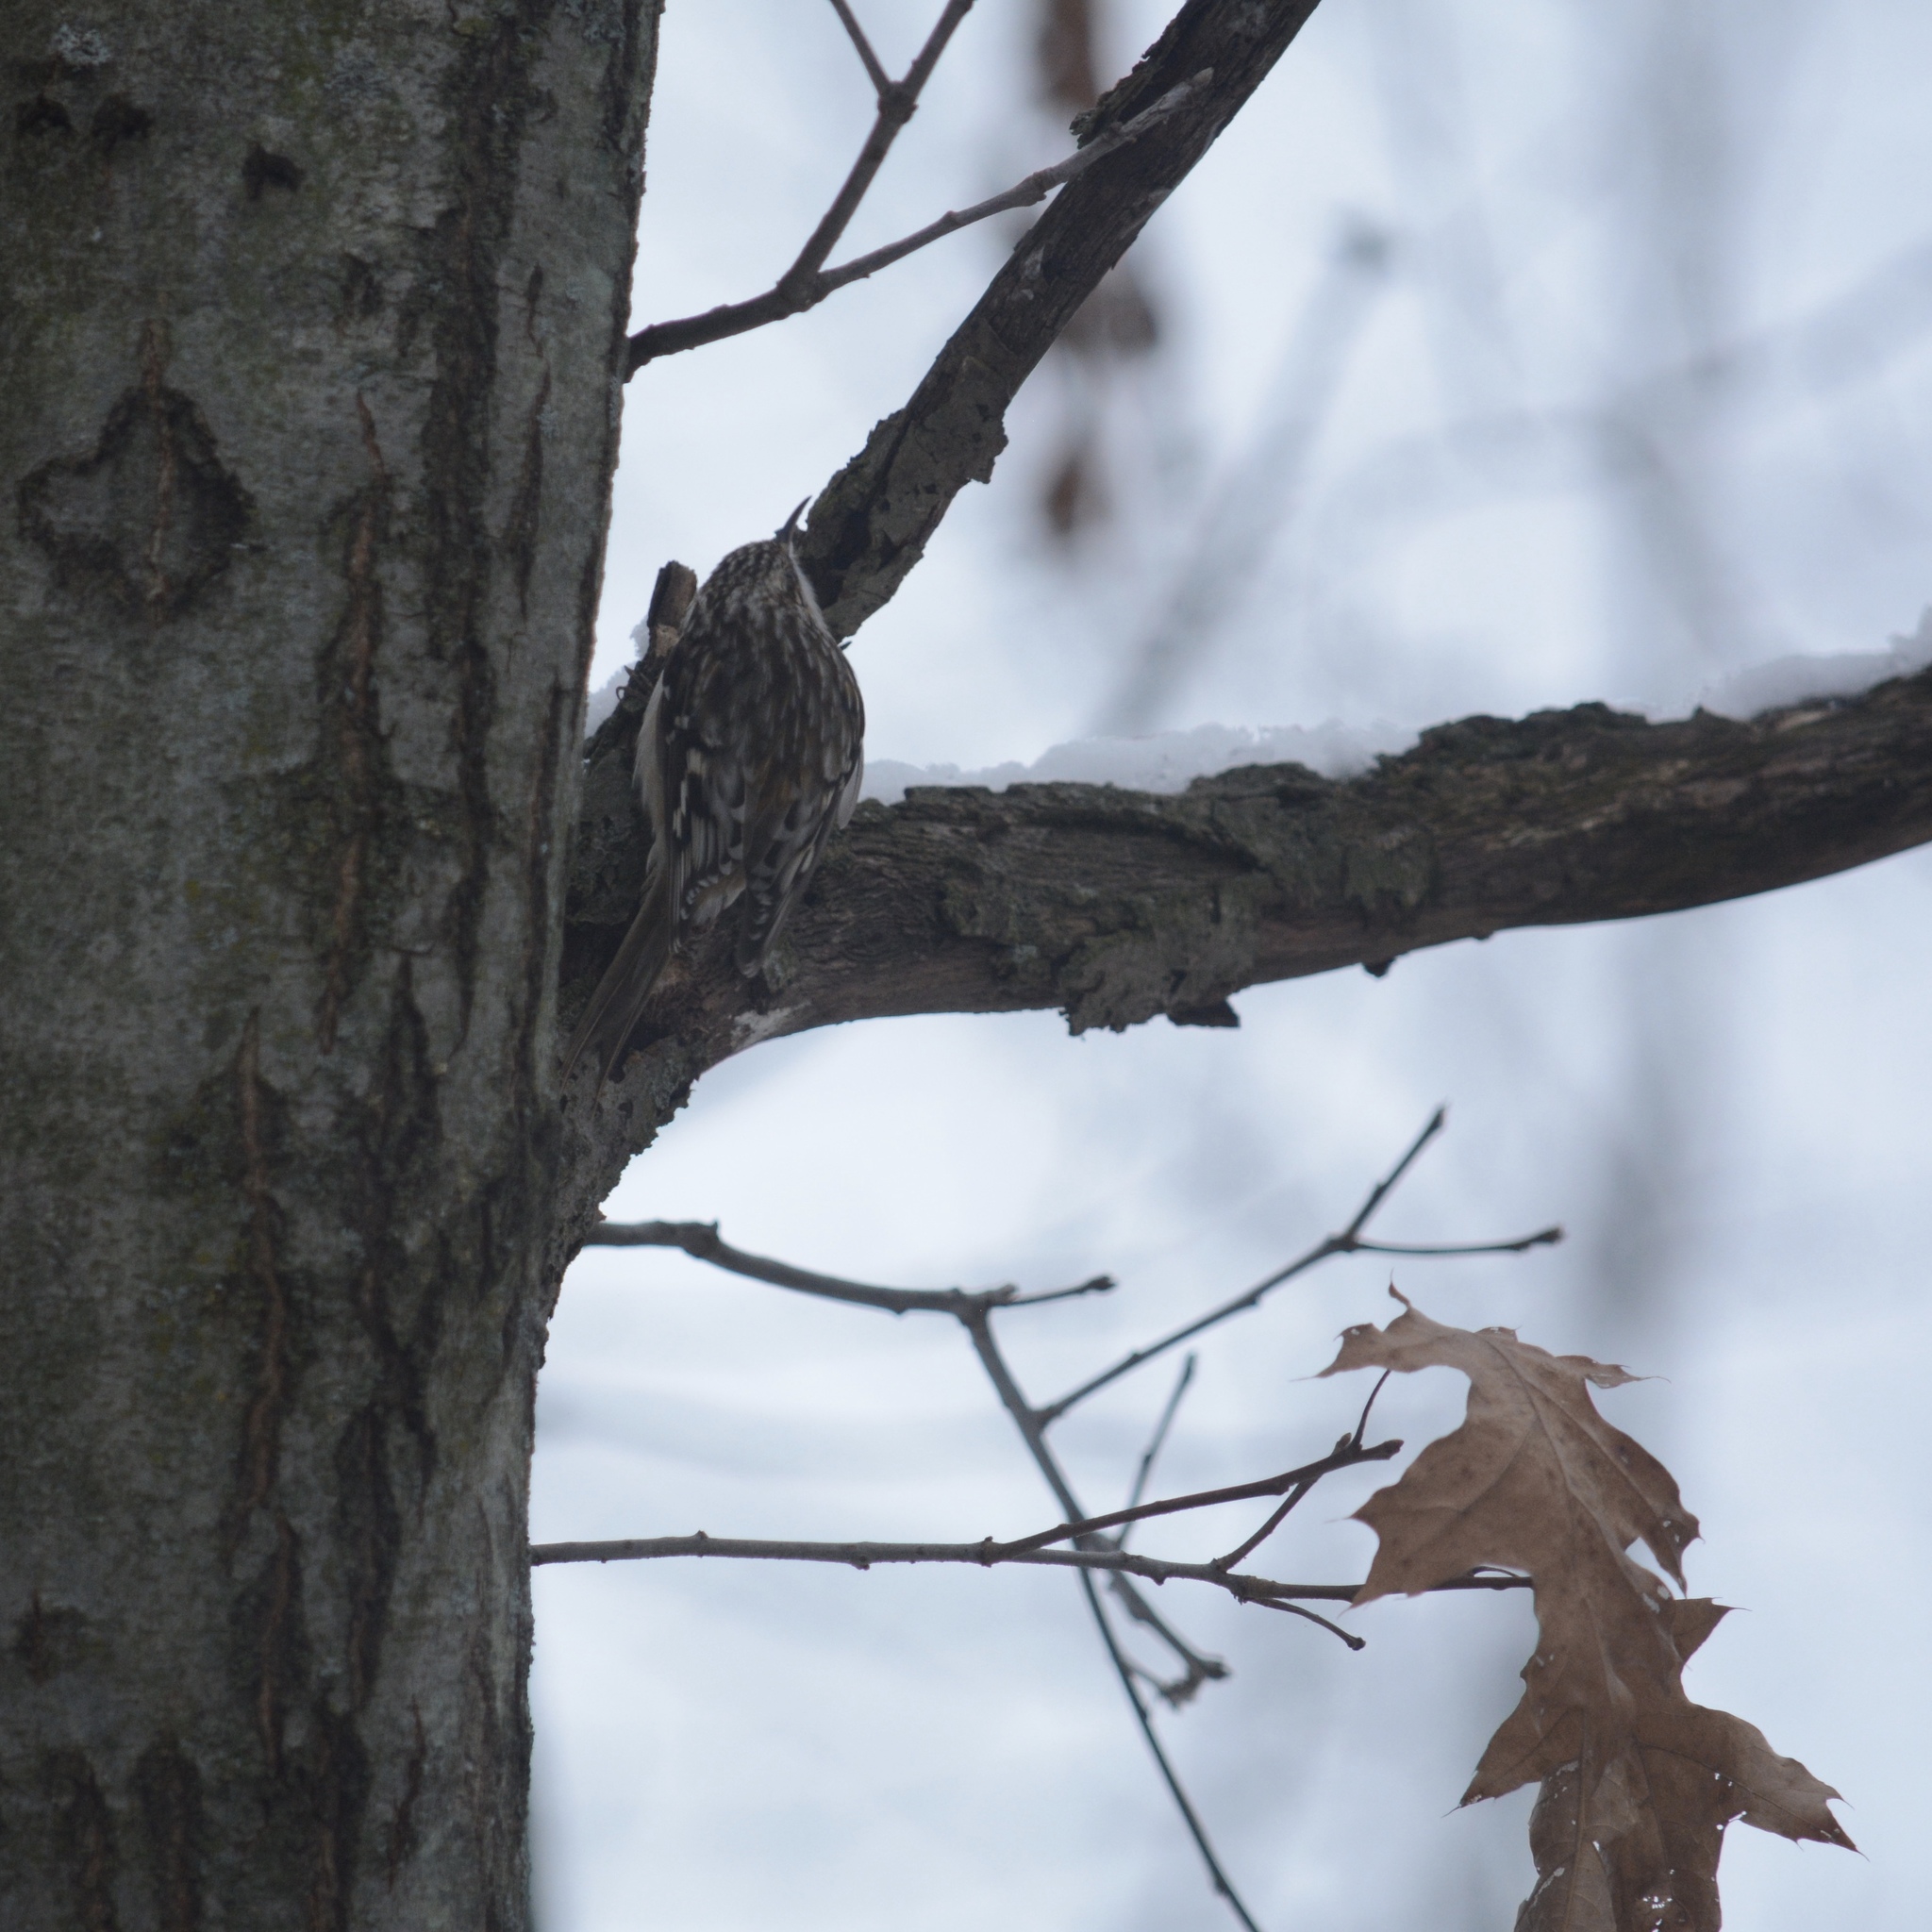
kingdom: Animalia
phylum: Chordata
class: Aves
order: Passeriformes
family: Certhiidae
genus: Certhia
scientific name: Certhia americana
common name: Brown creeper
